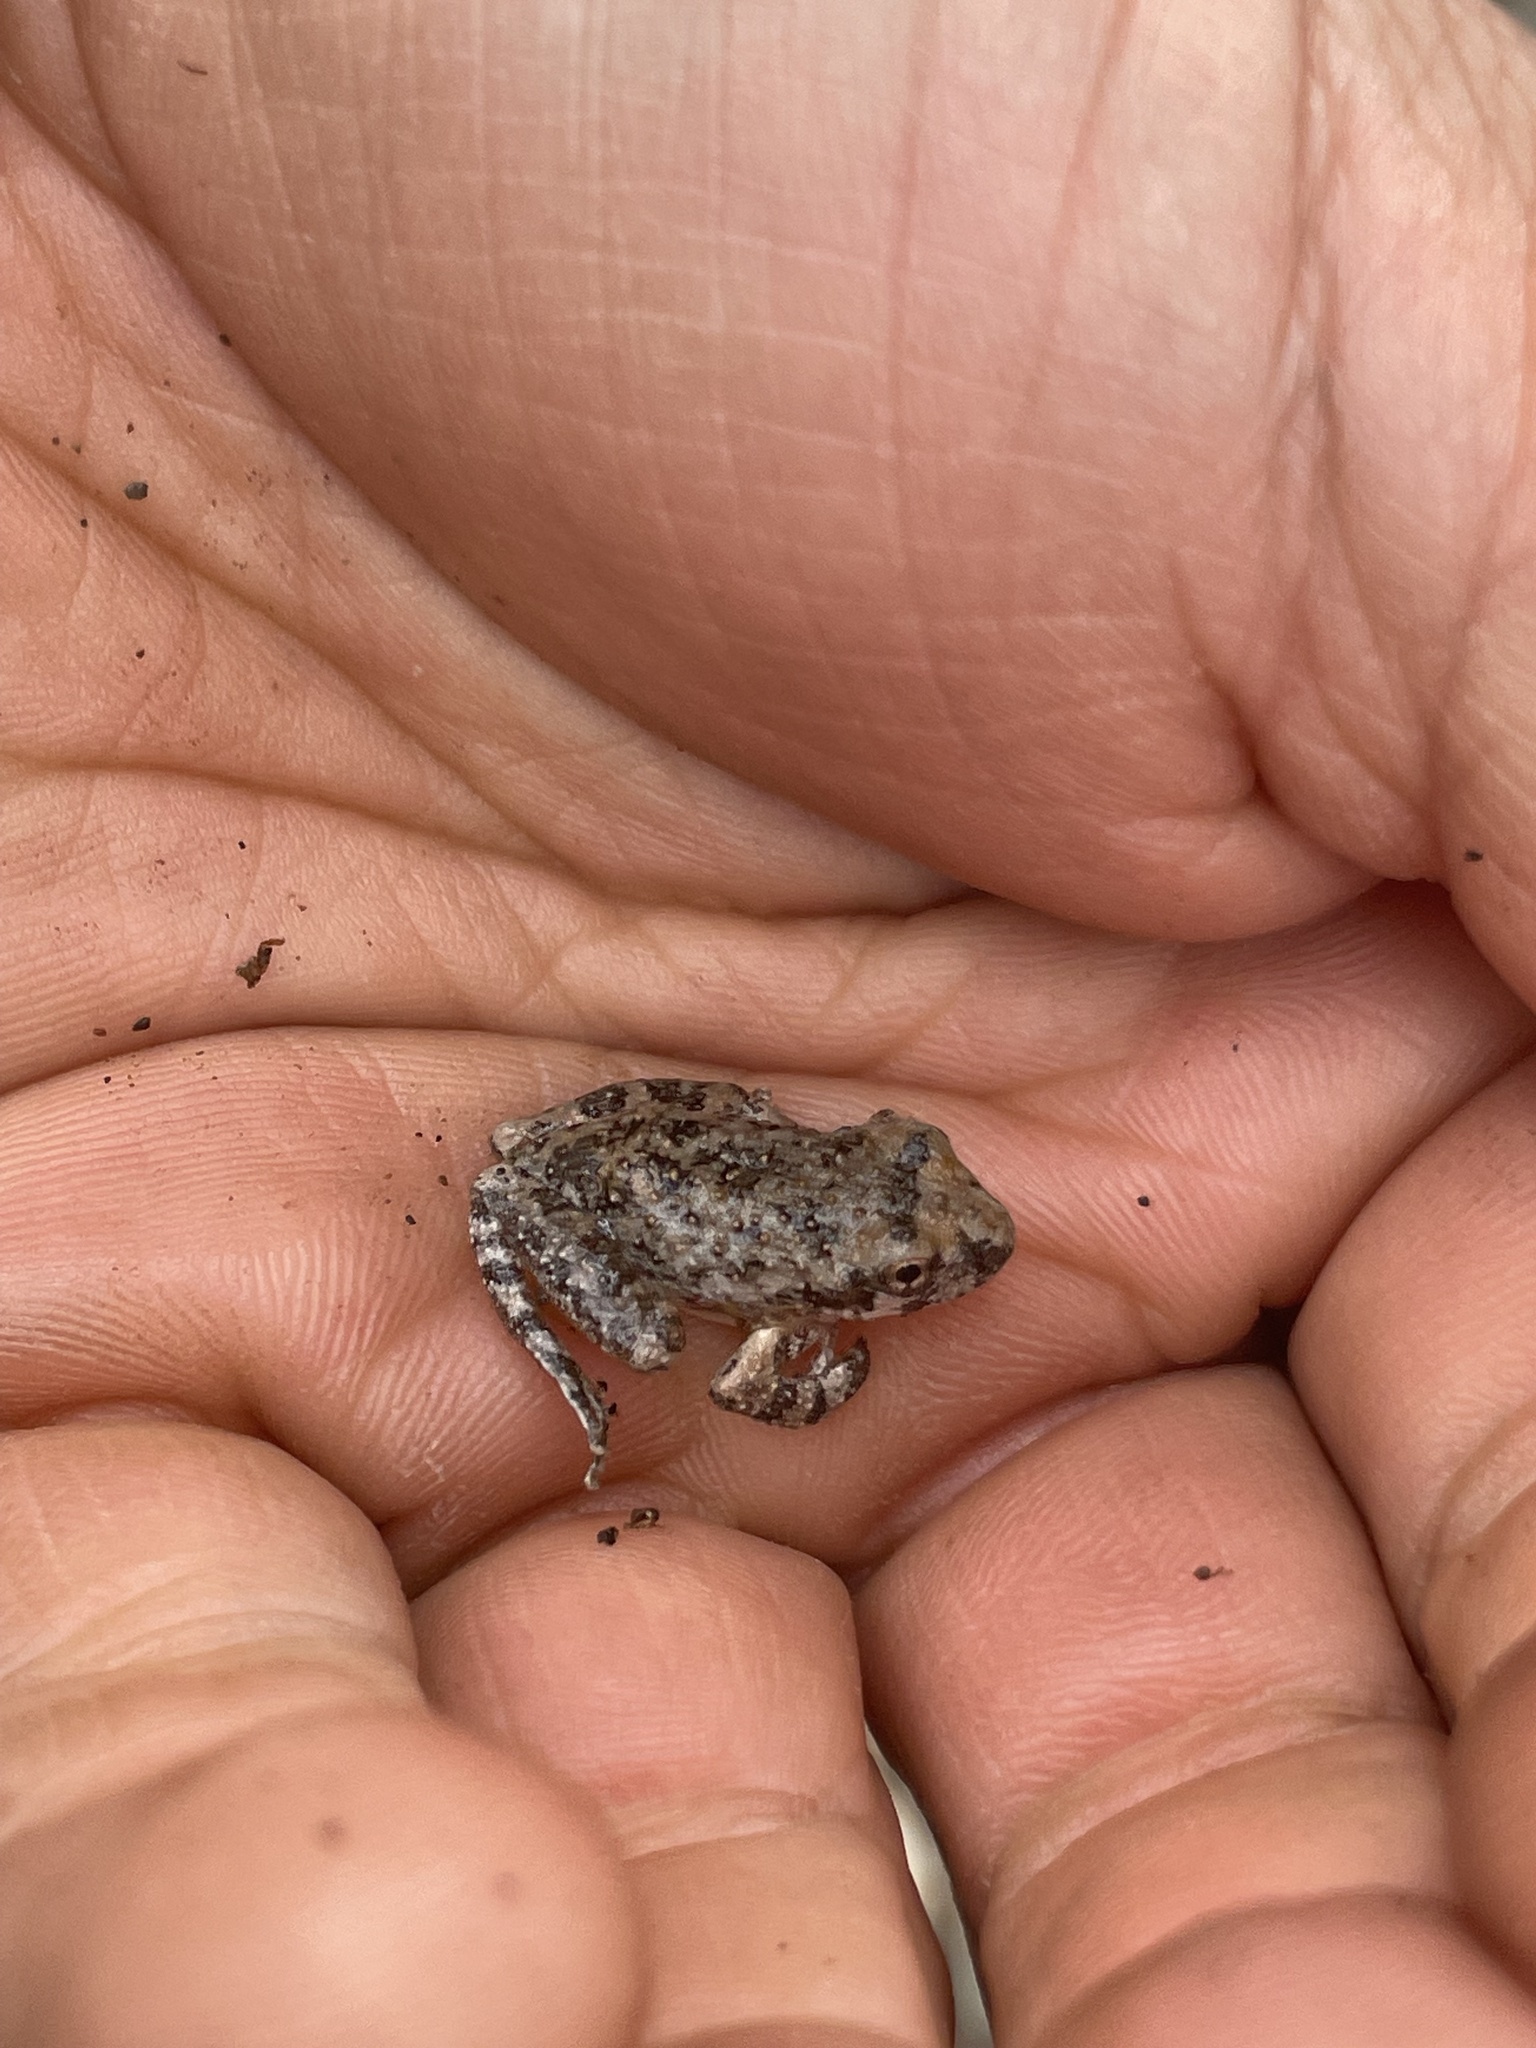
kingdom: Animalia
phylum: Chordata
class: Amphibia
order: Anura
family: Hylidae
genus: Pseudacris
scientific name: Pseudacris cadaverina
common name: California chorus frog
